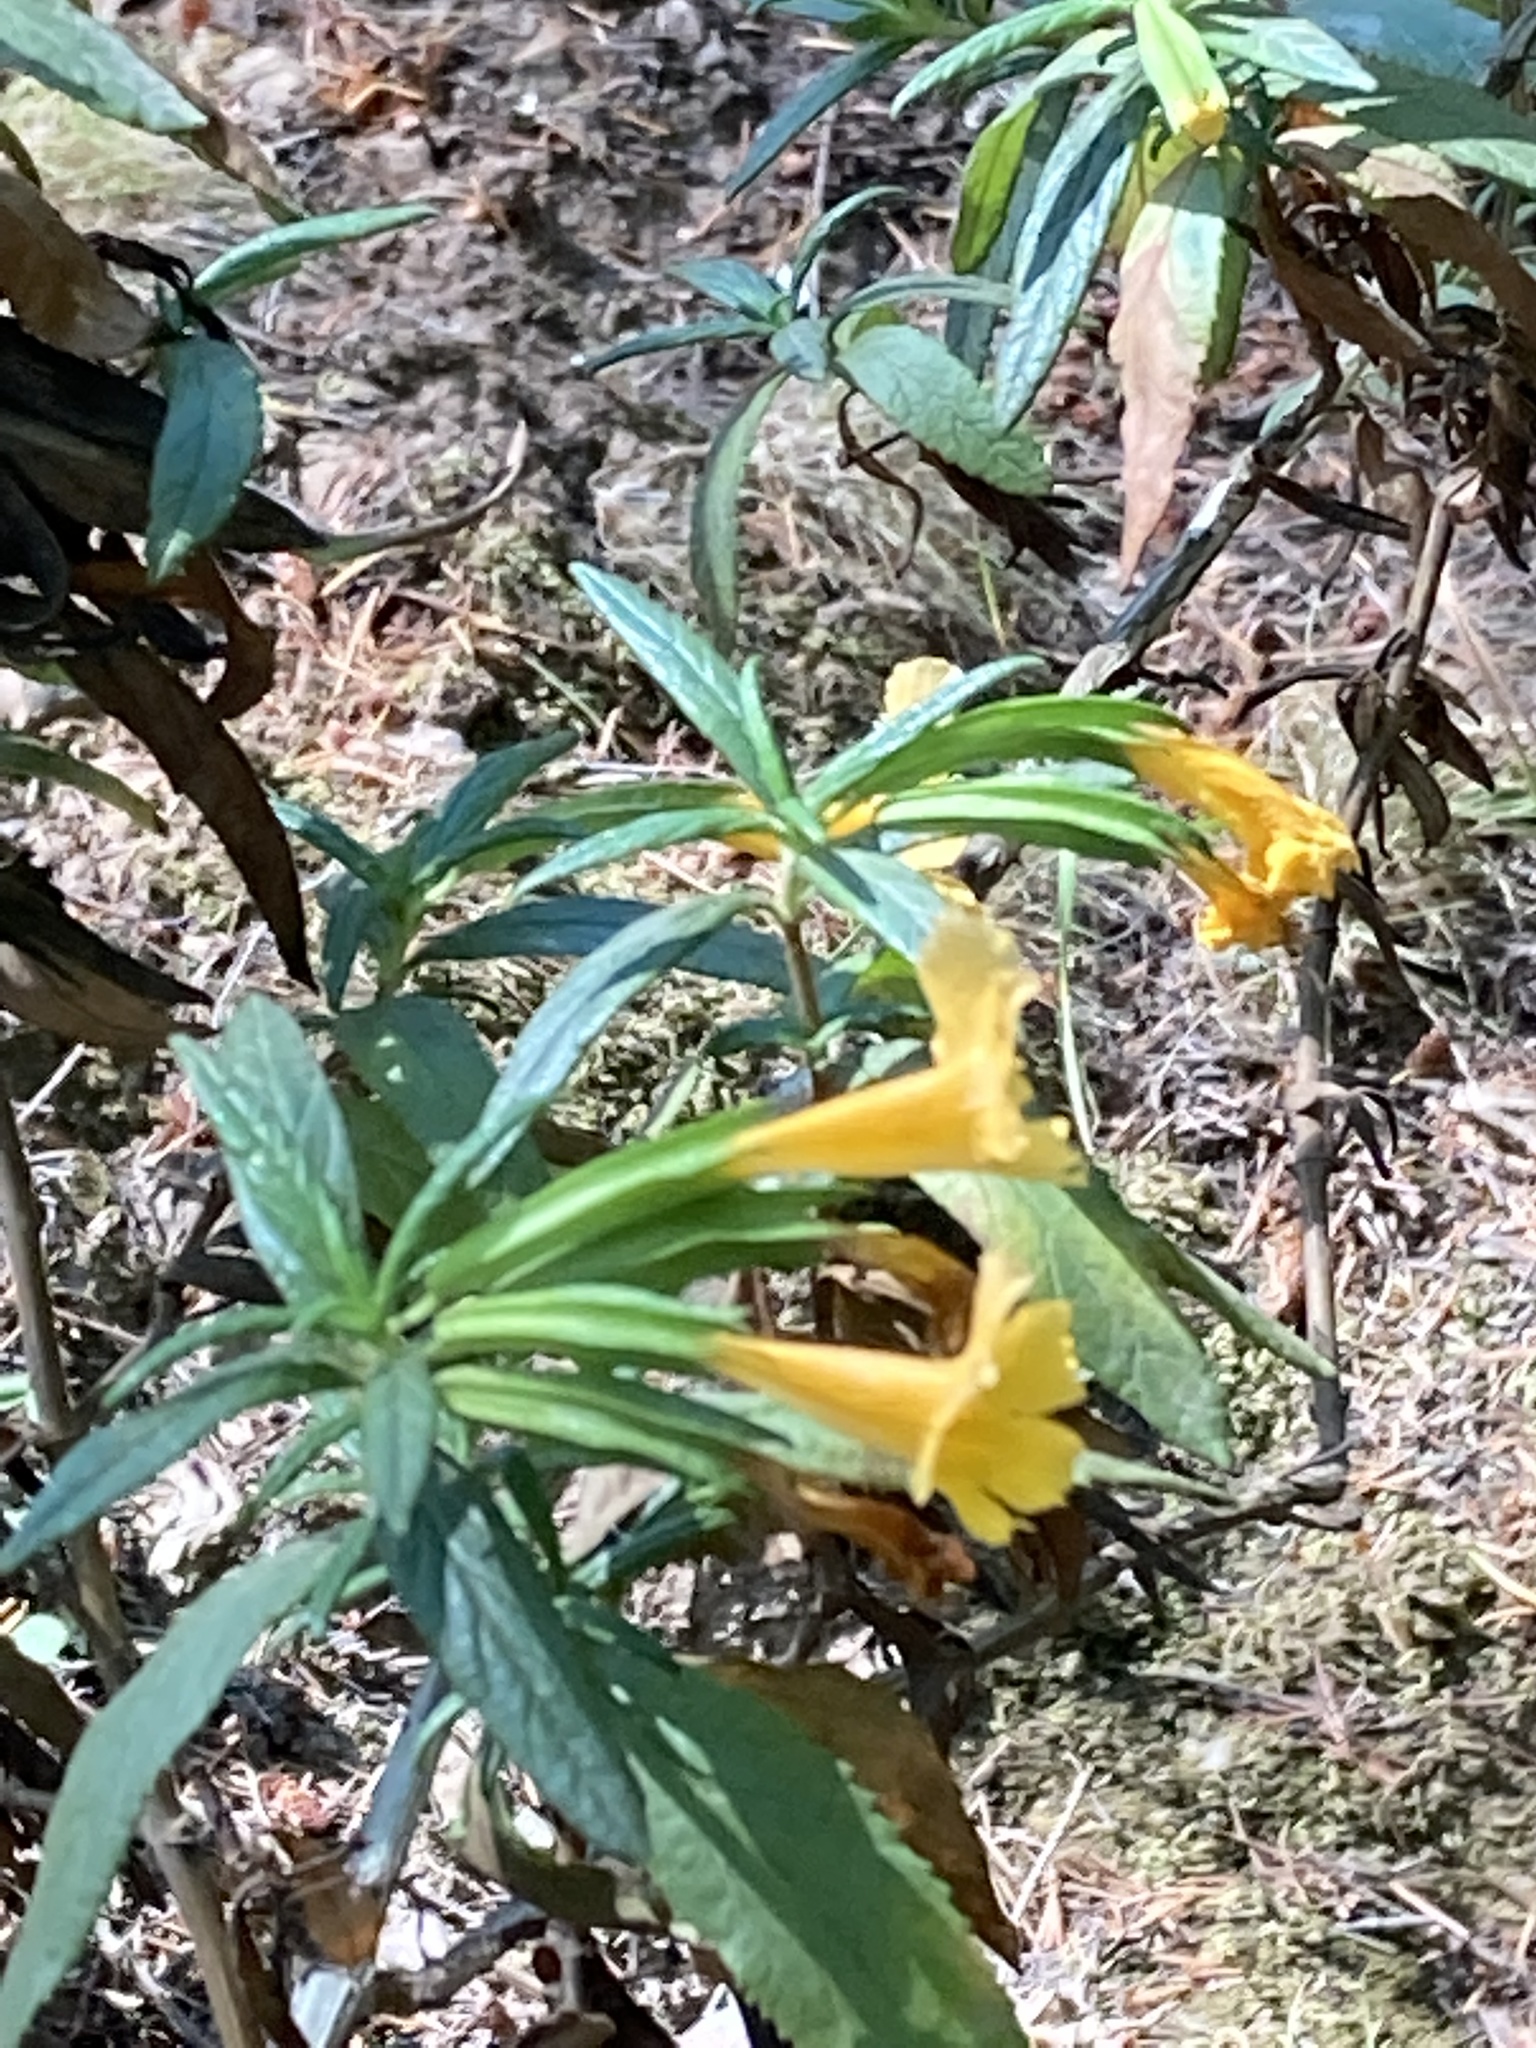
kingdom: Plantae
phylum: Tracheophyta
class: Magnoliopsida
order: Lamiales
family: Phrymaceae
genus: Diplacus
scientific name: Diplacus aurantiacus
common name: Bush monkey-flower
